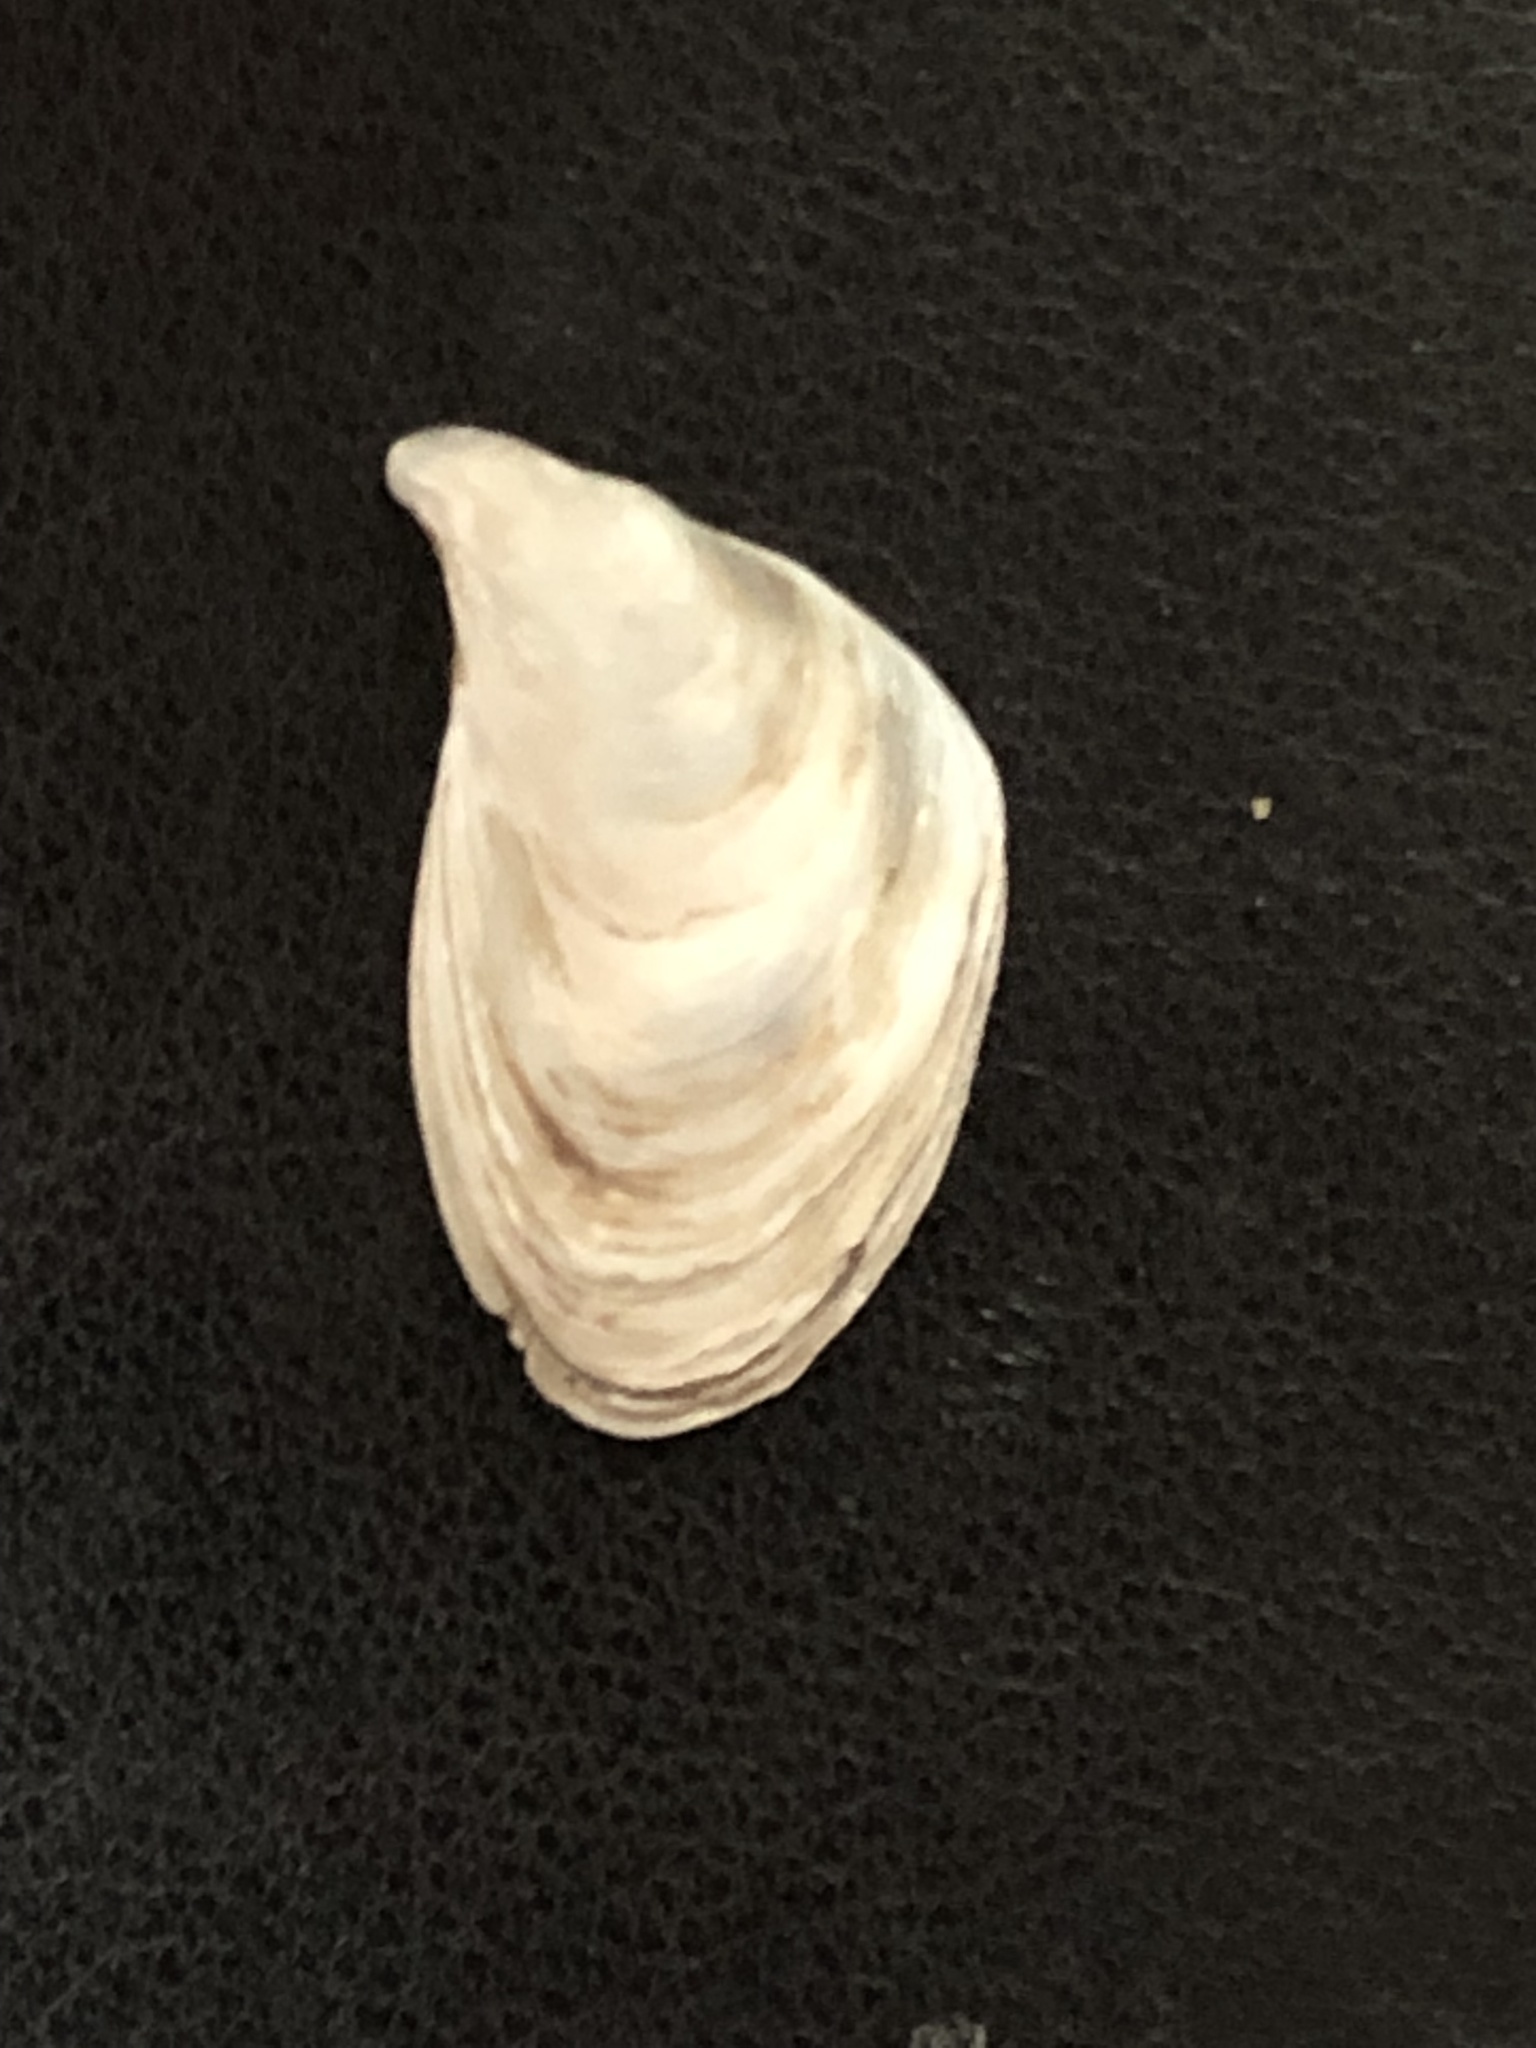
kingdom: Animalia
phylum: Mollusca
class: Bivalvia
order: Myida
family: Dreissenidae
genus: Dreissena
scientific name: Dreissena bugensis
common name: Quagga mussel
